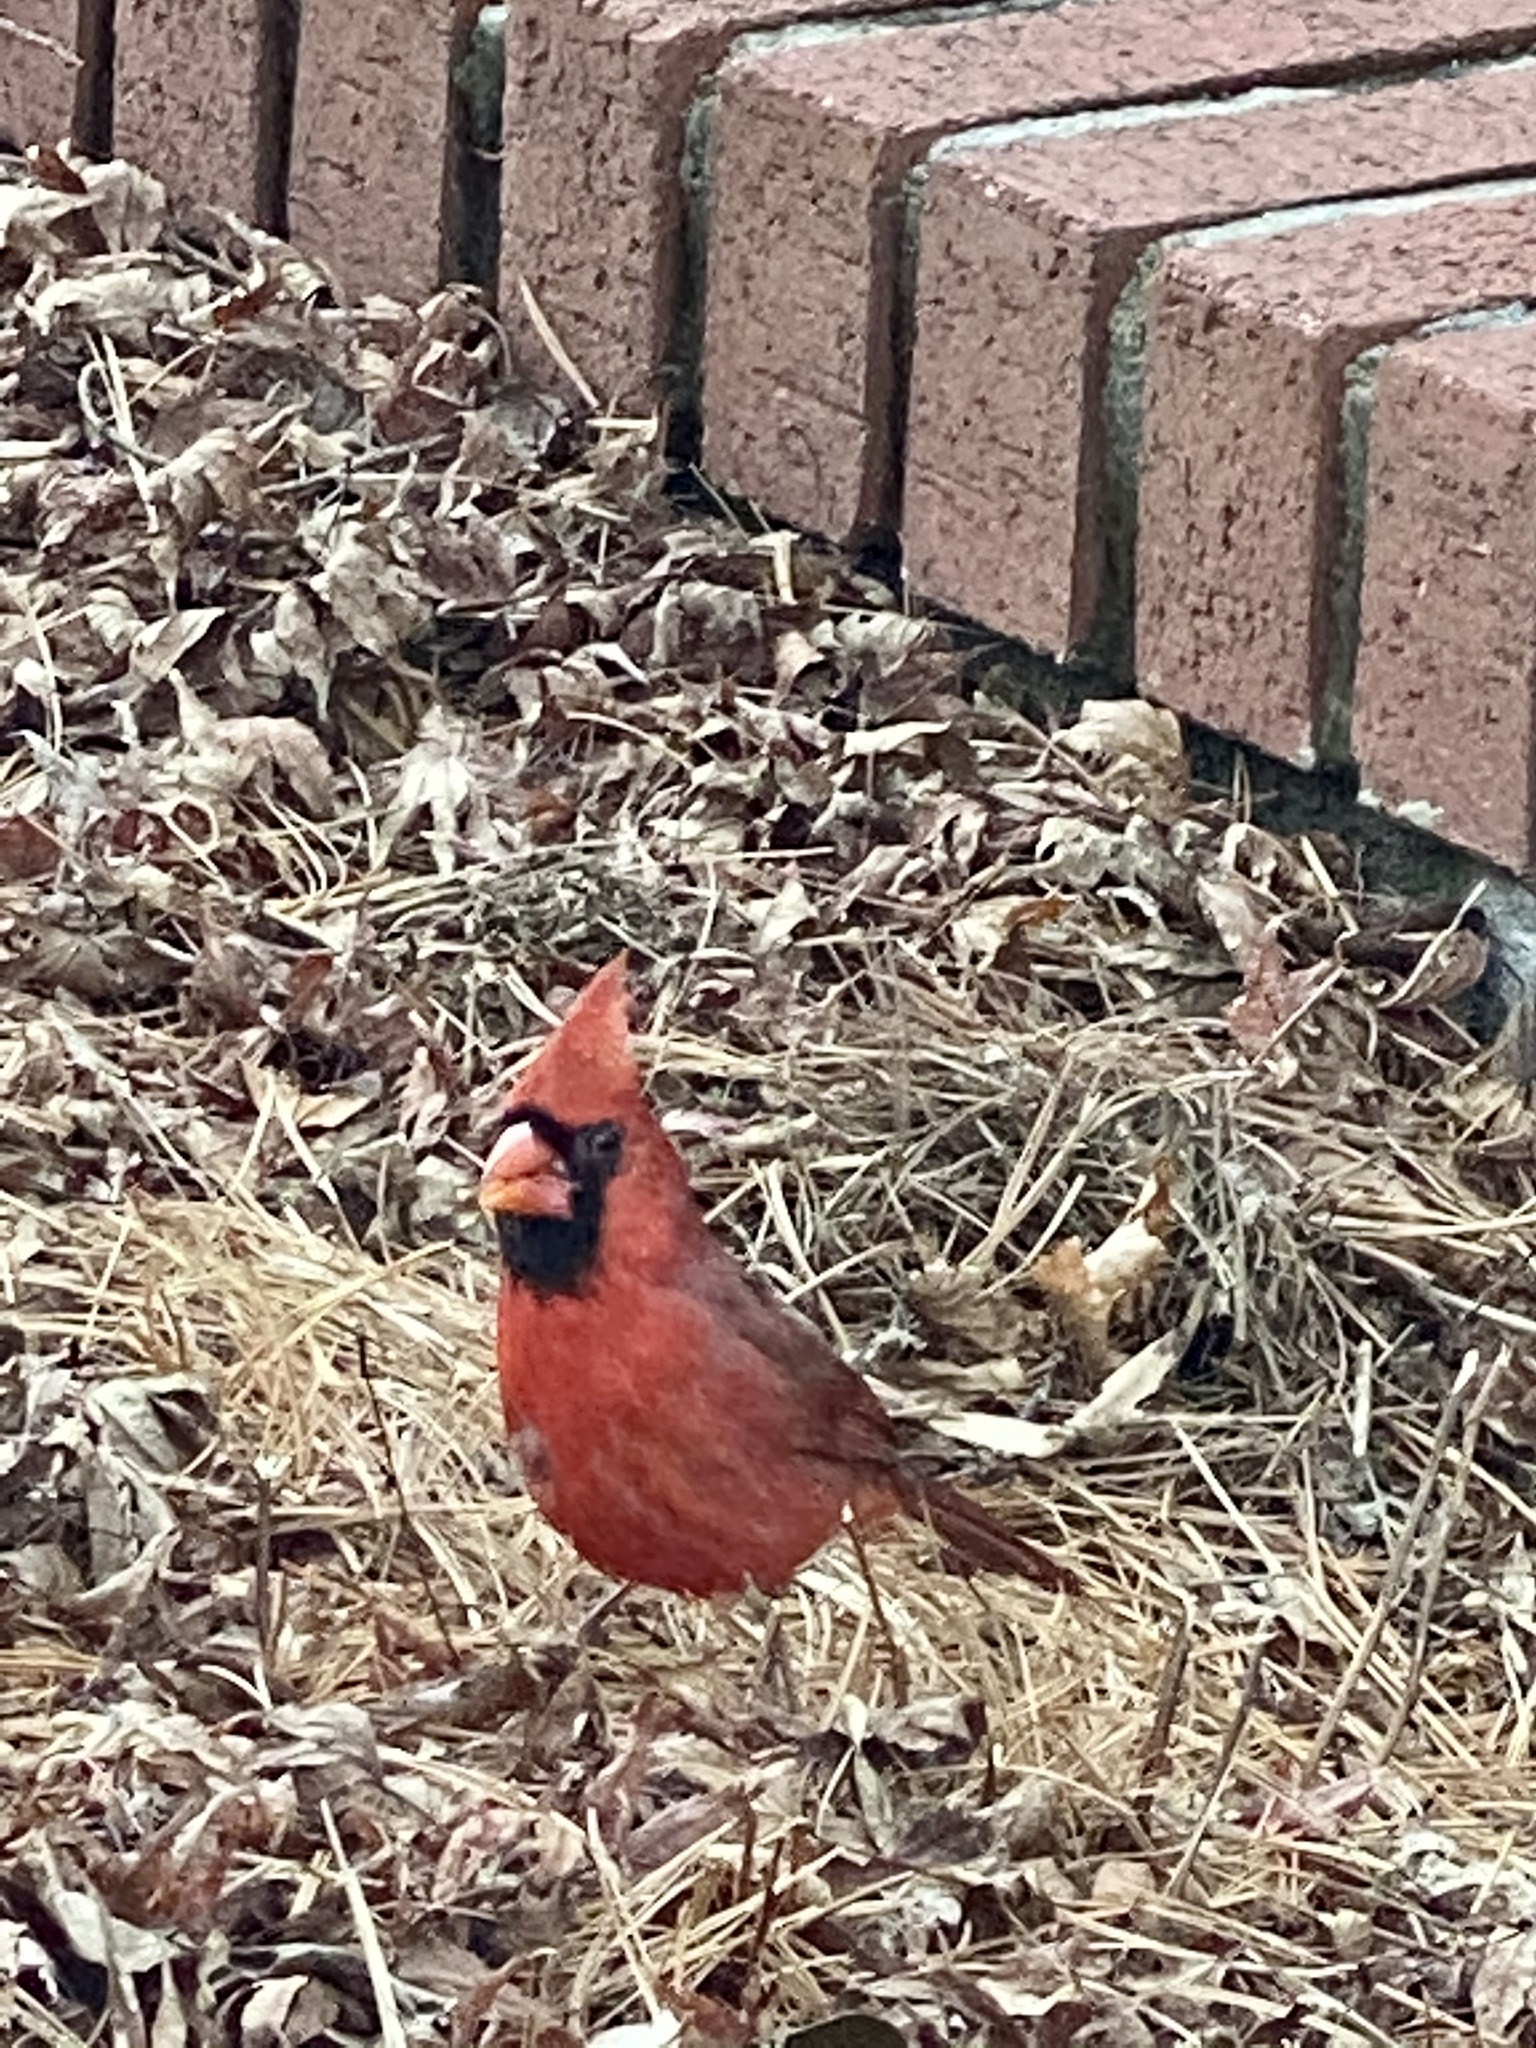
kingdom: Animalia
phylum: Chordata
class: Aves
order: Passeriformes
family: Cardinalidae
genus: Cardinalis
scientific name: Cardinalis cardinalis
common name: Northern cardinal
